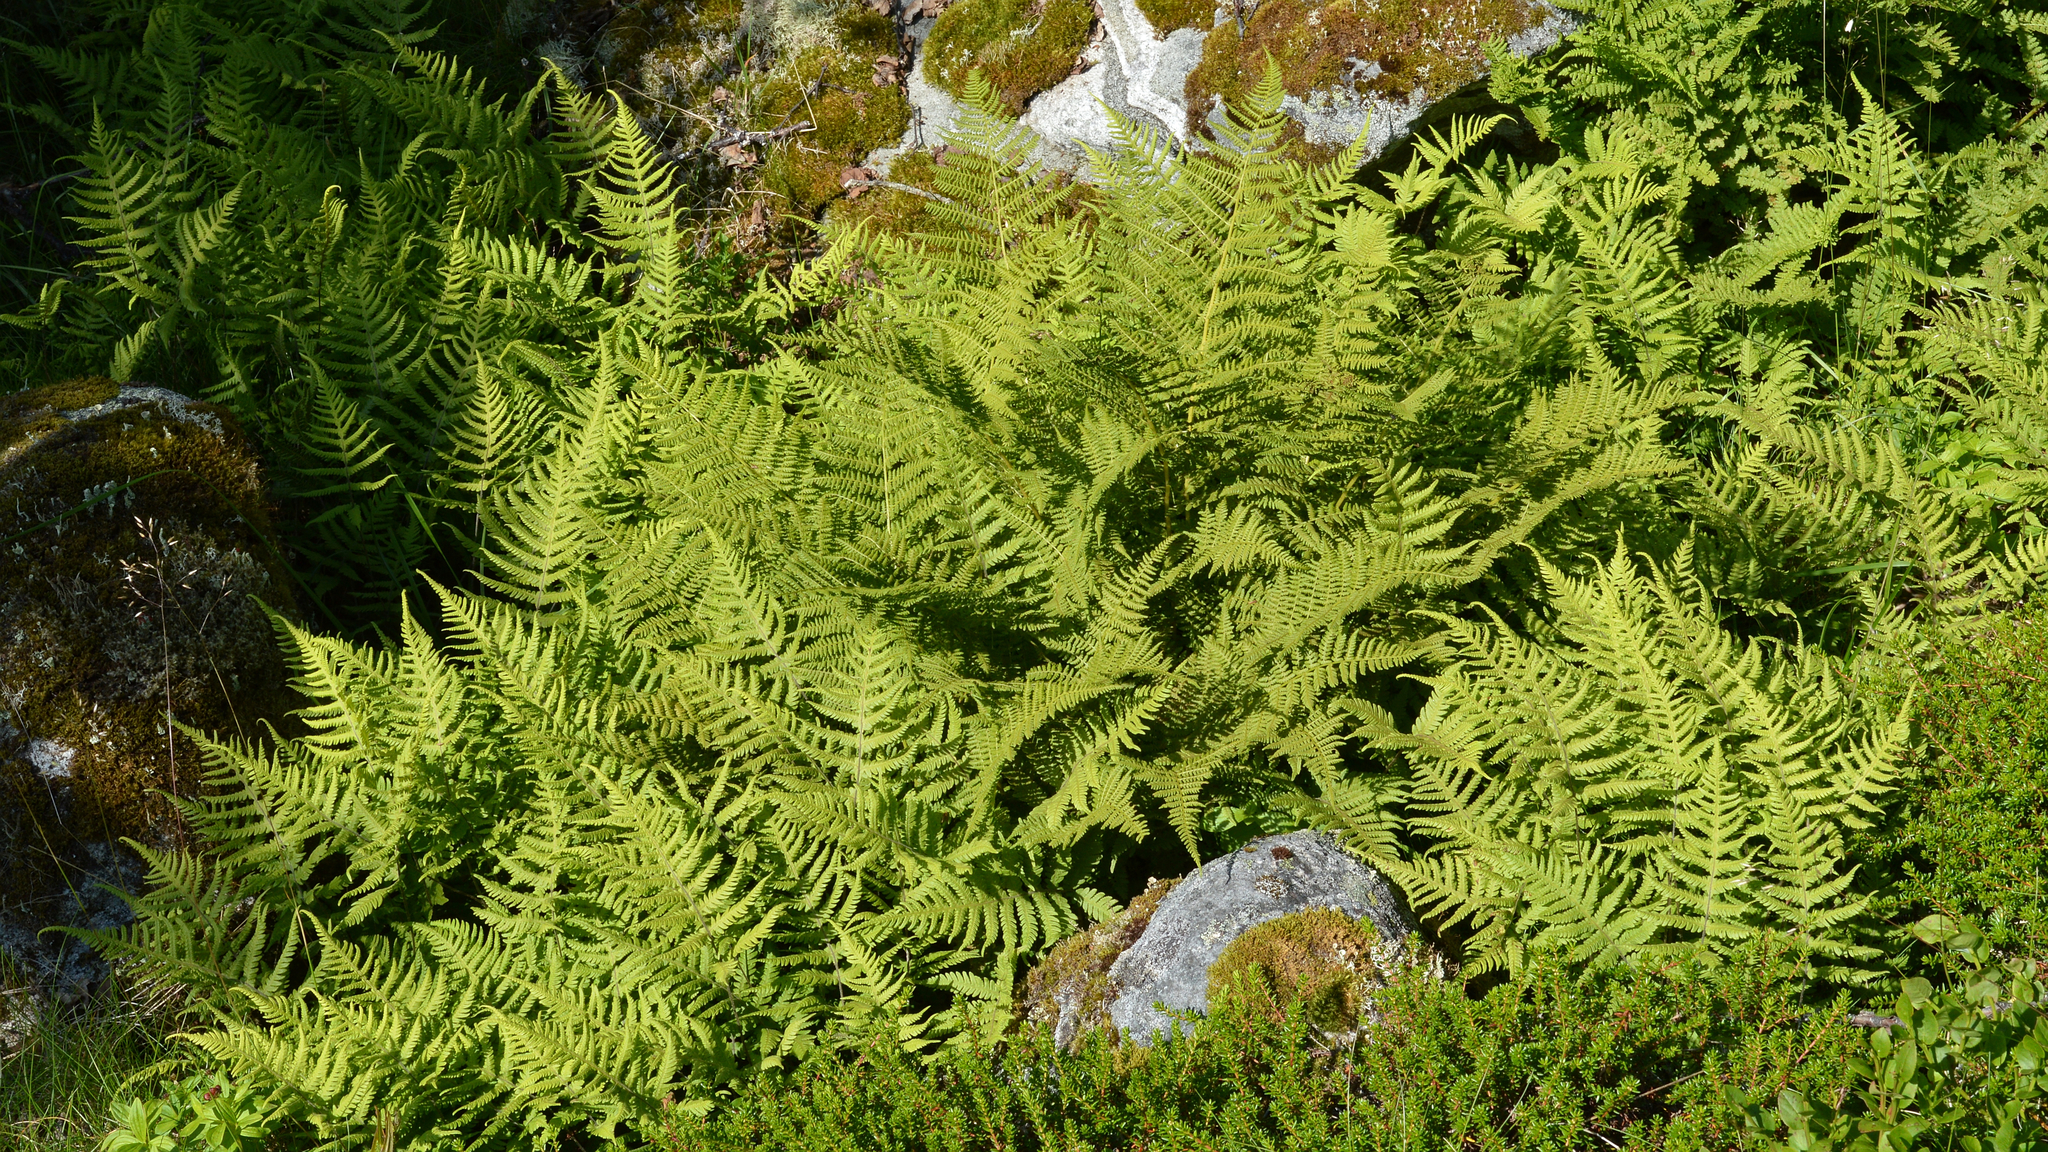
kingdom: Plantae
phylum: Tracheophyta
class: Polypodiopsida
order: Polypodiales
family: Thelypteridaceae
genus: Phegopteris
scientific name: Phegopteris connectilis
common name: Beech fern
